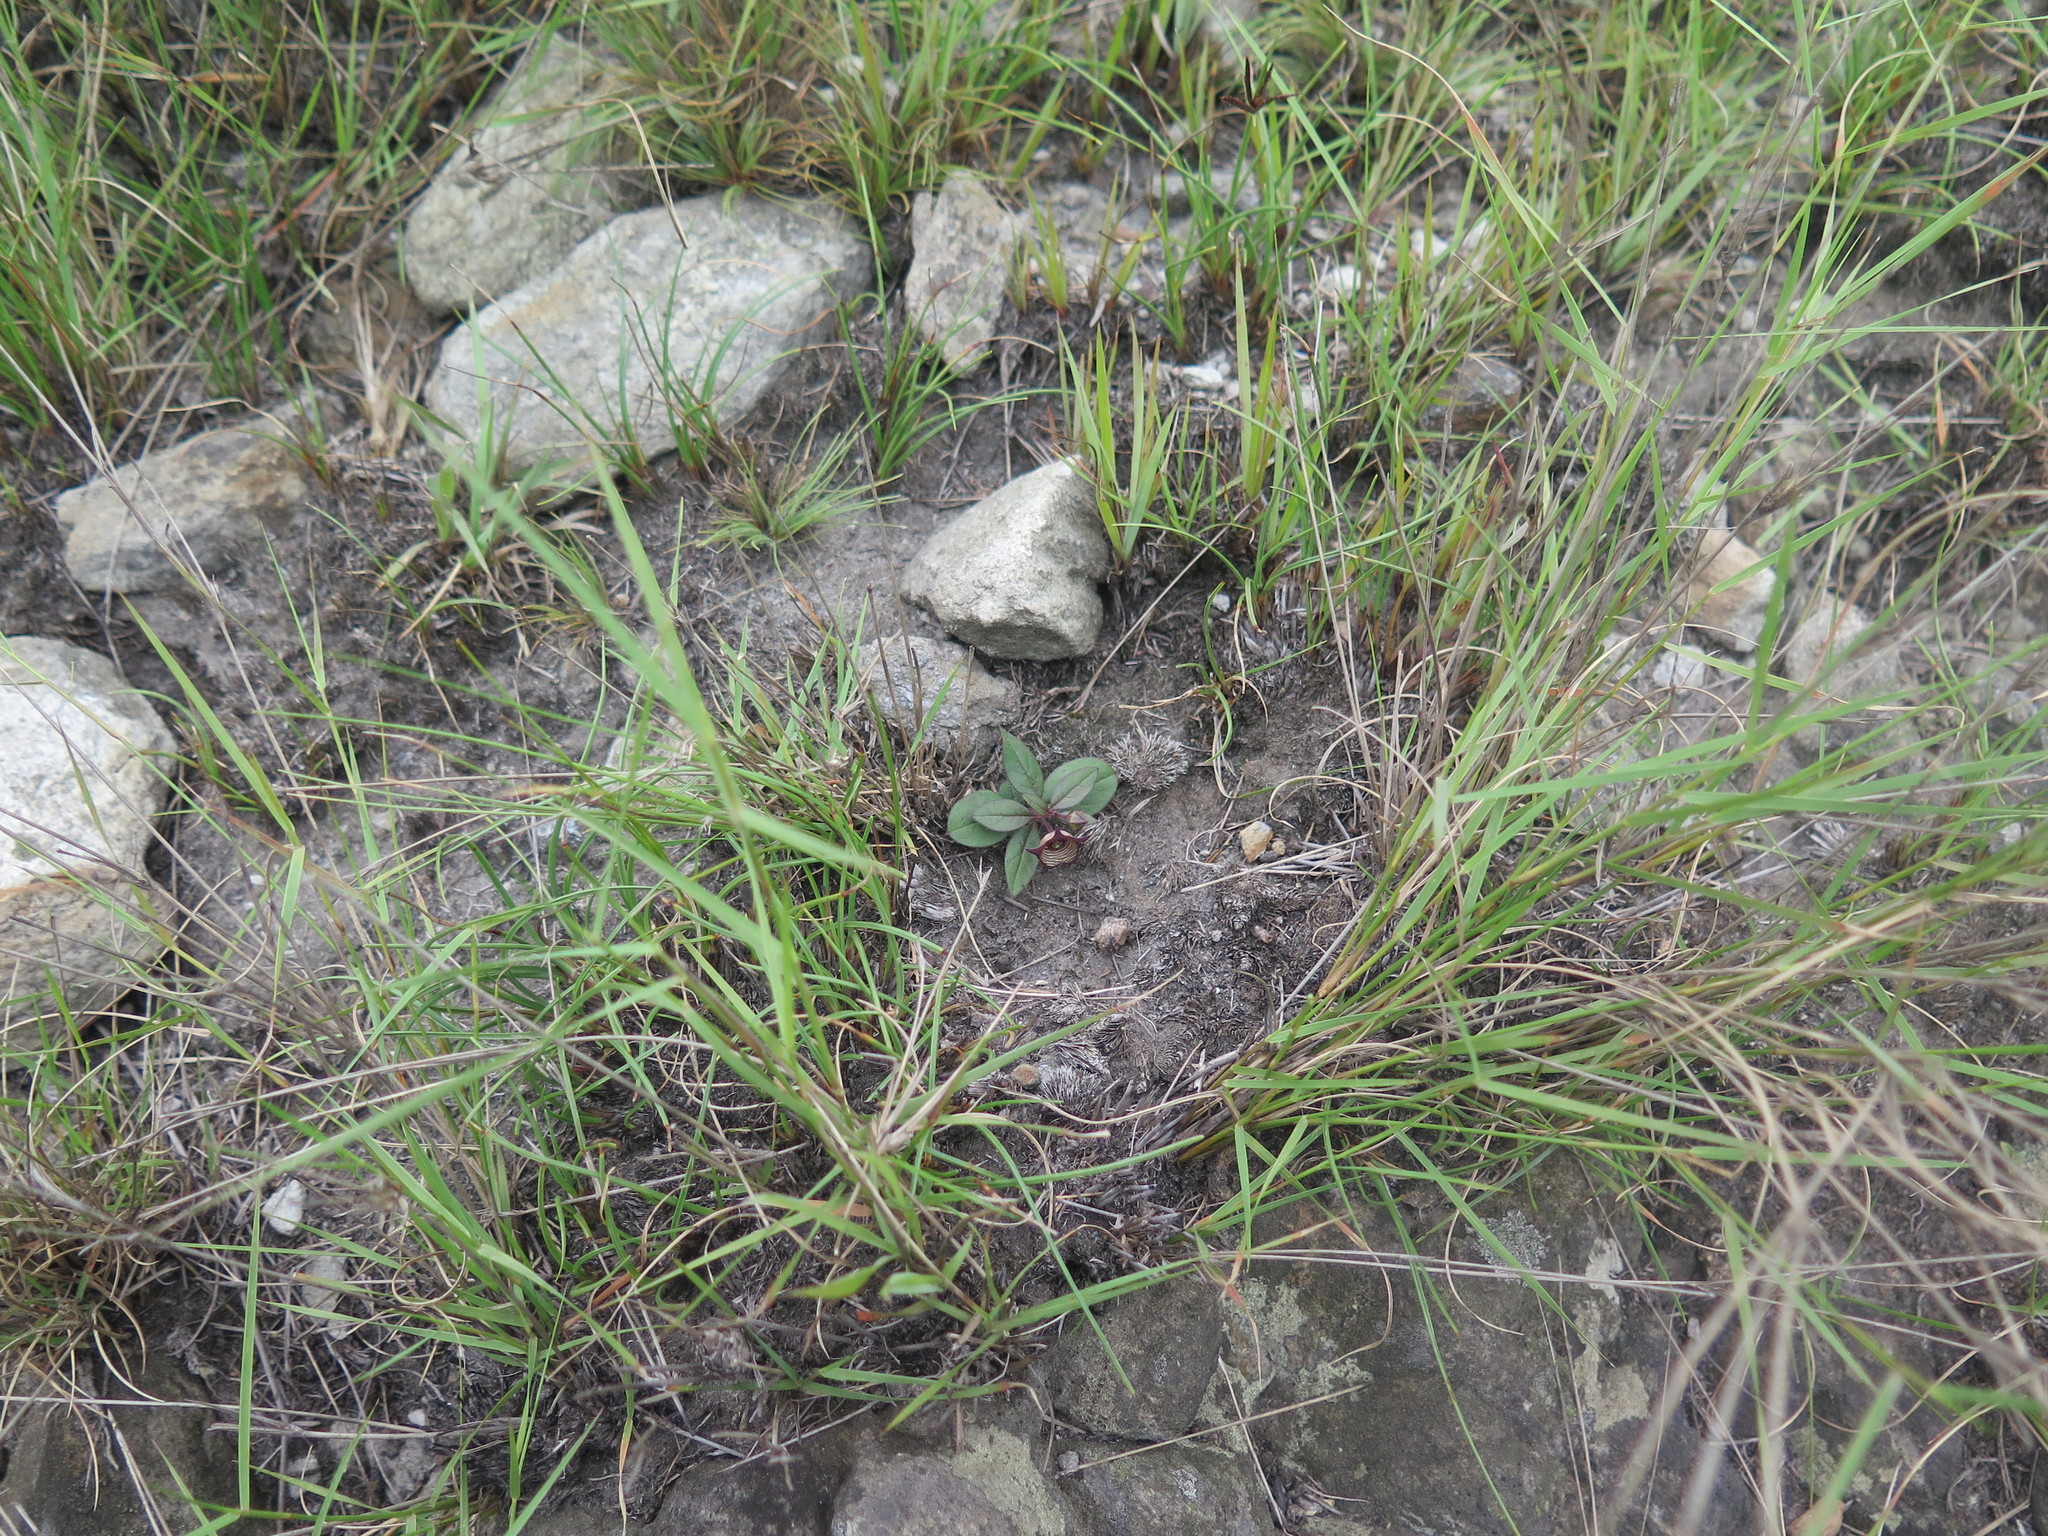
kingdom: Plantae
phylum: Tracheophyta
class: Magnoliopsida
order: Gentianales
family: Apocynaceae
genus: Ceropegia
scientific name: Ceropegia modestantha
